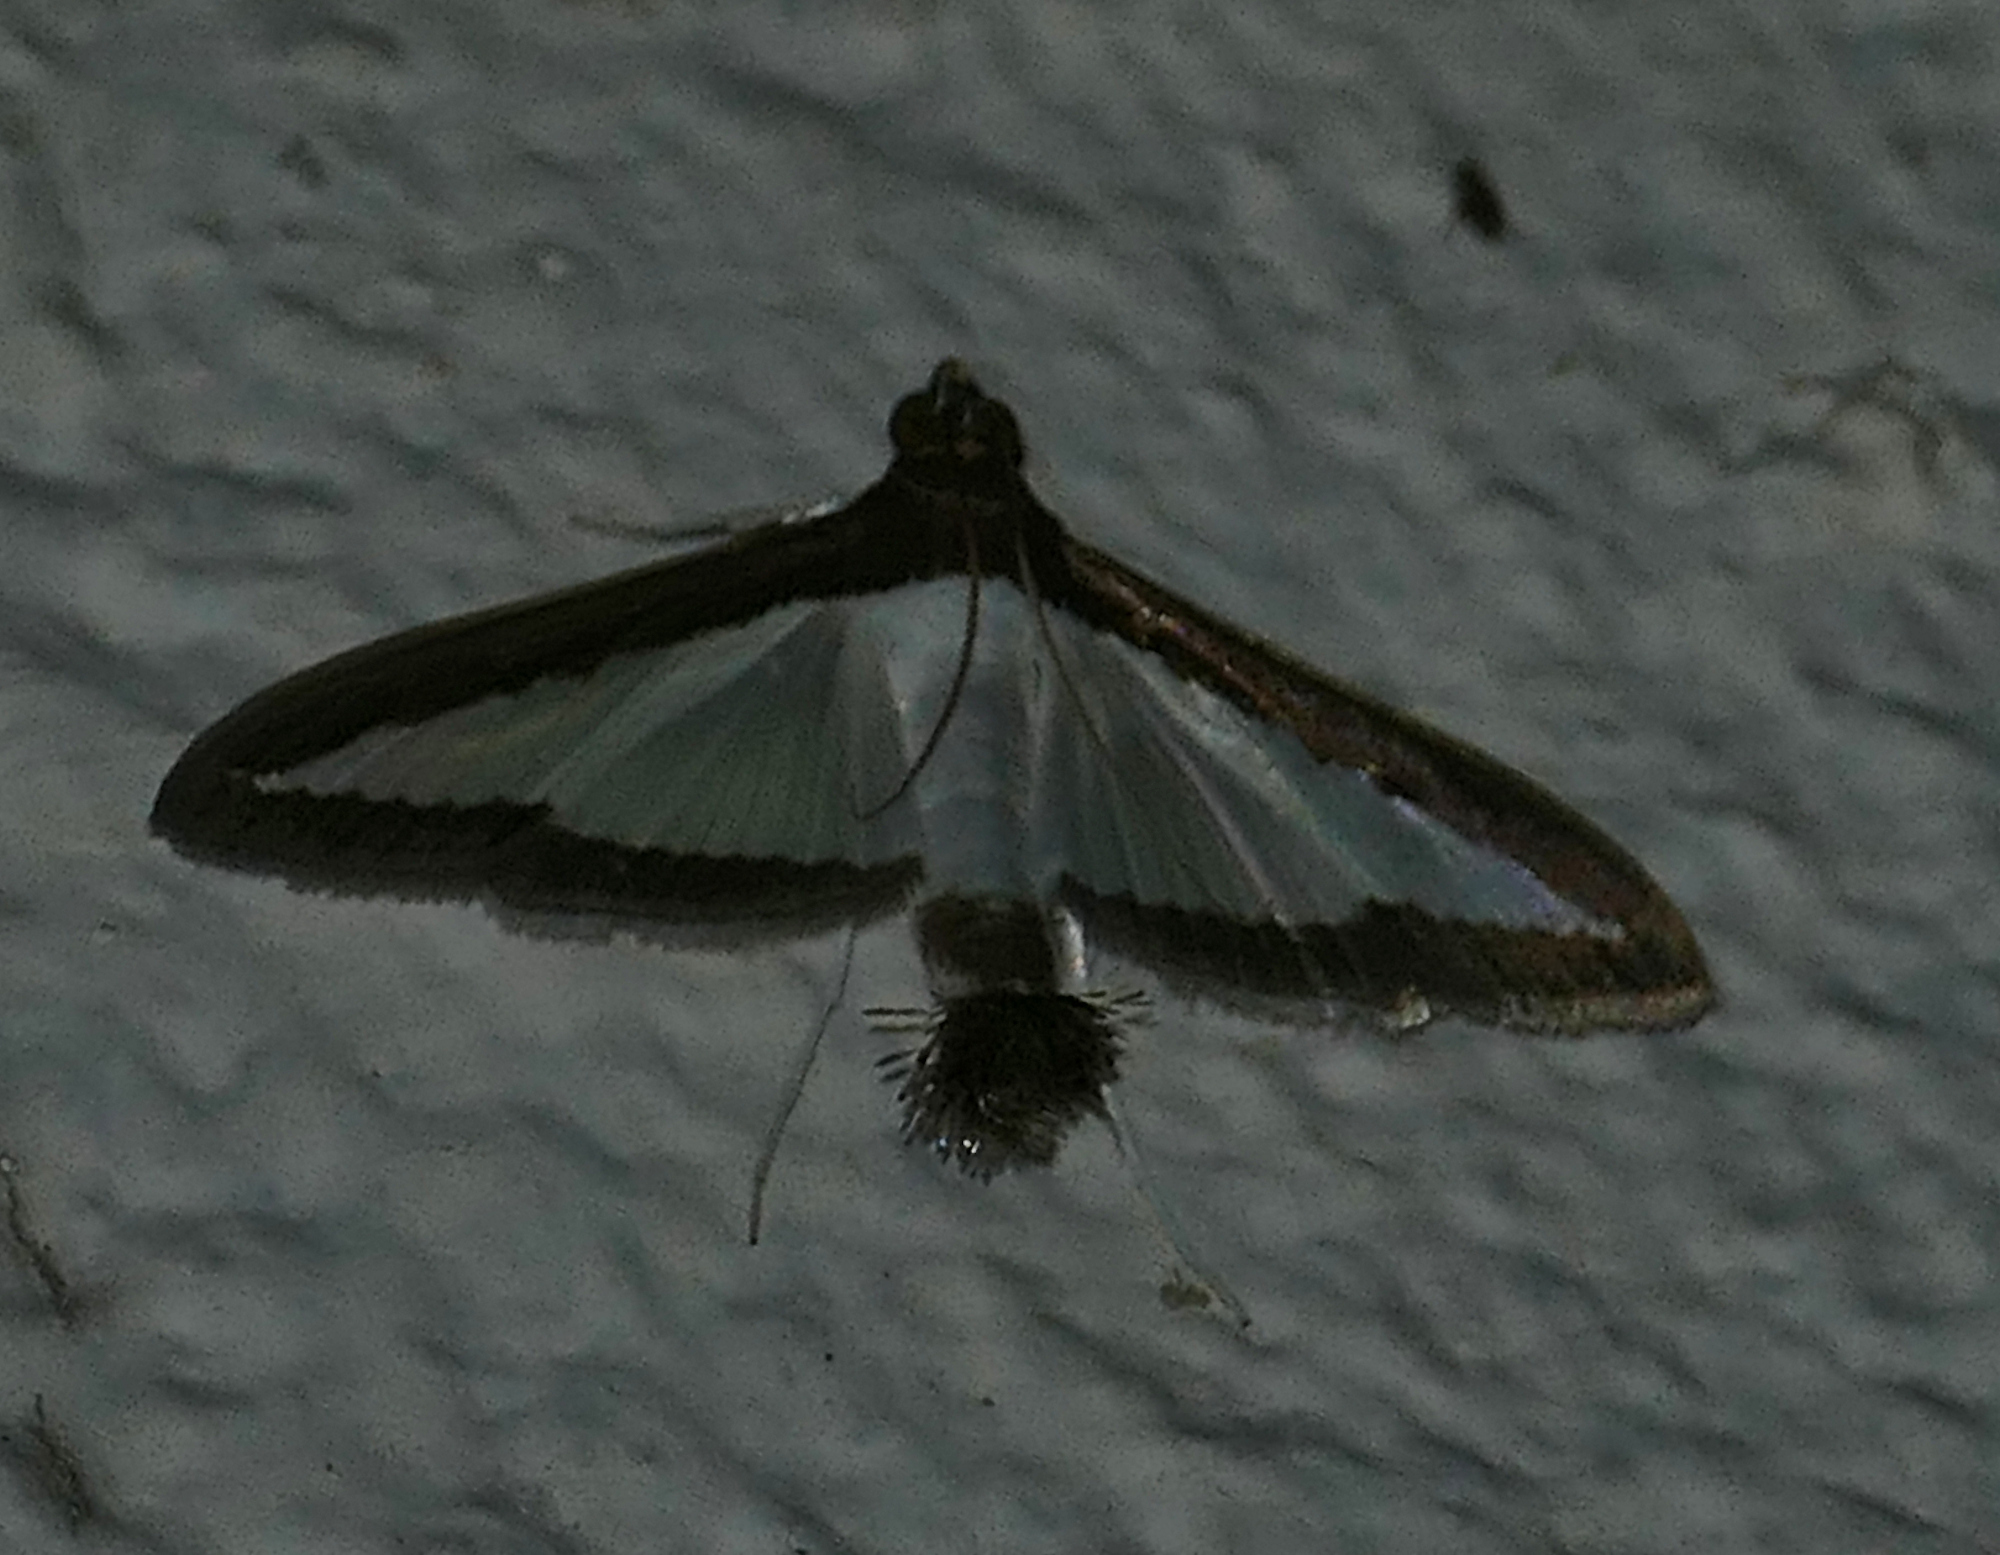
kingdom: Animalia
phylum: Arthropoda
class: Insecta
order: Lepidoptera
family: Crambidae
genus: Diaphania
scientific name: Diaphania hyalinata
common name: Melonworm
